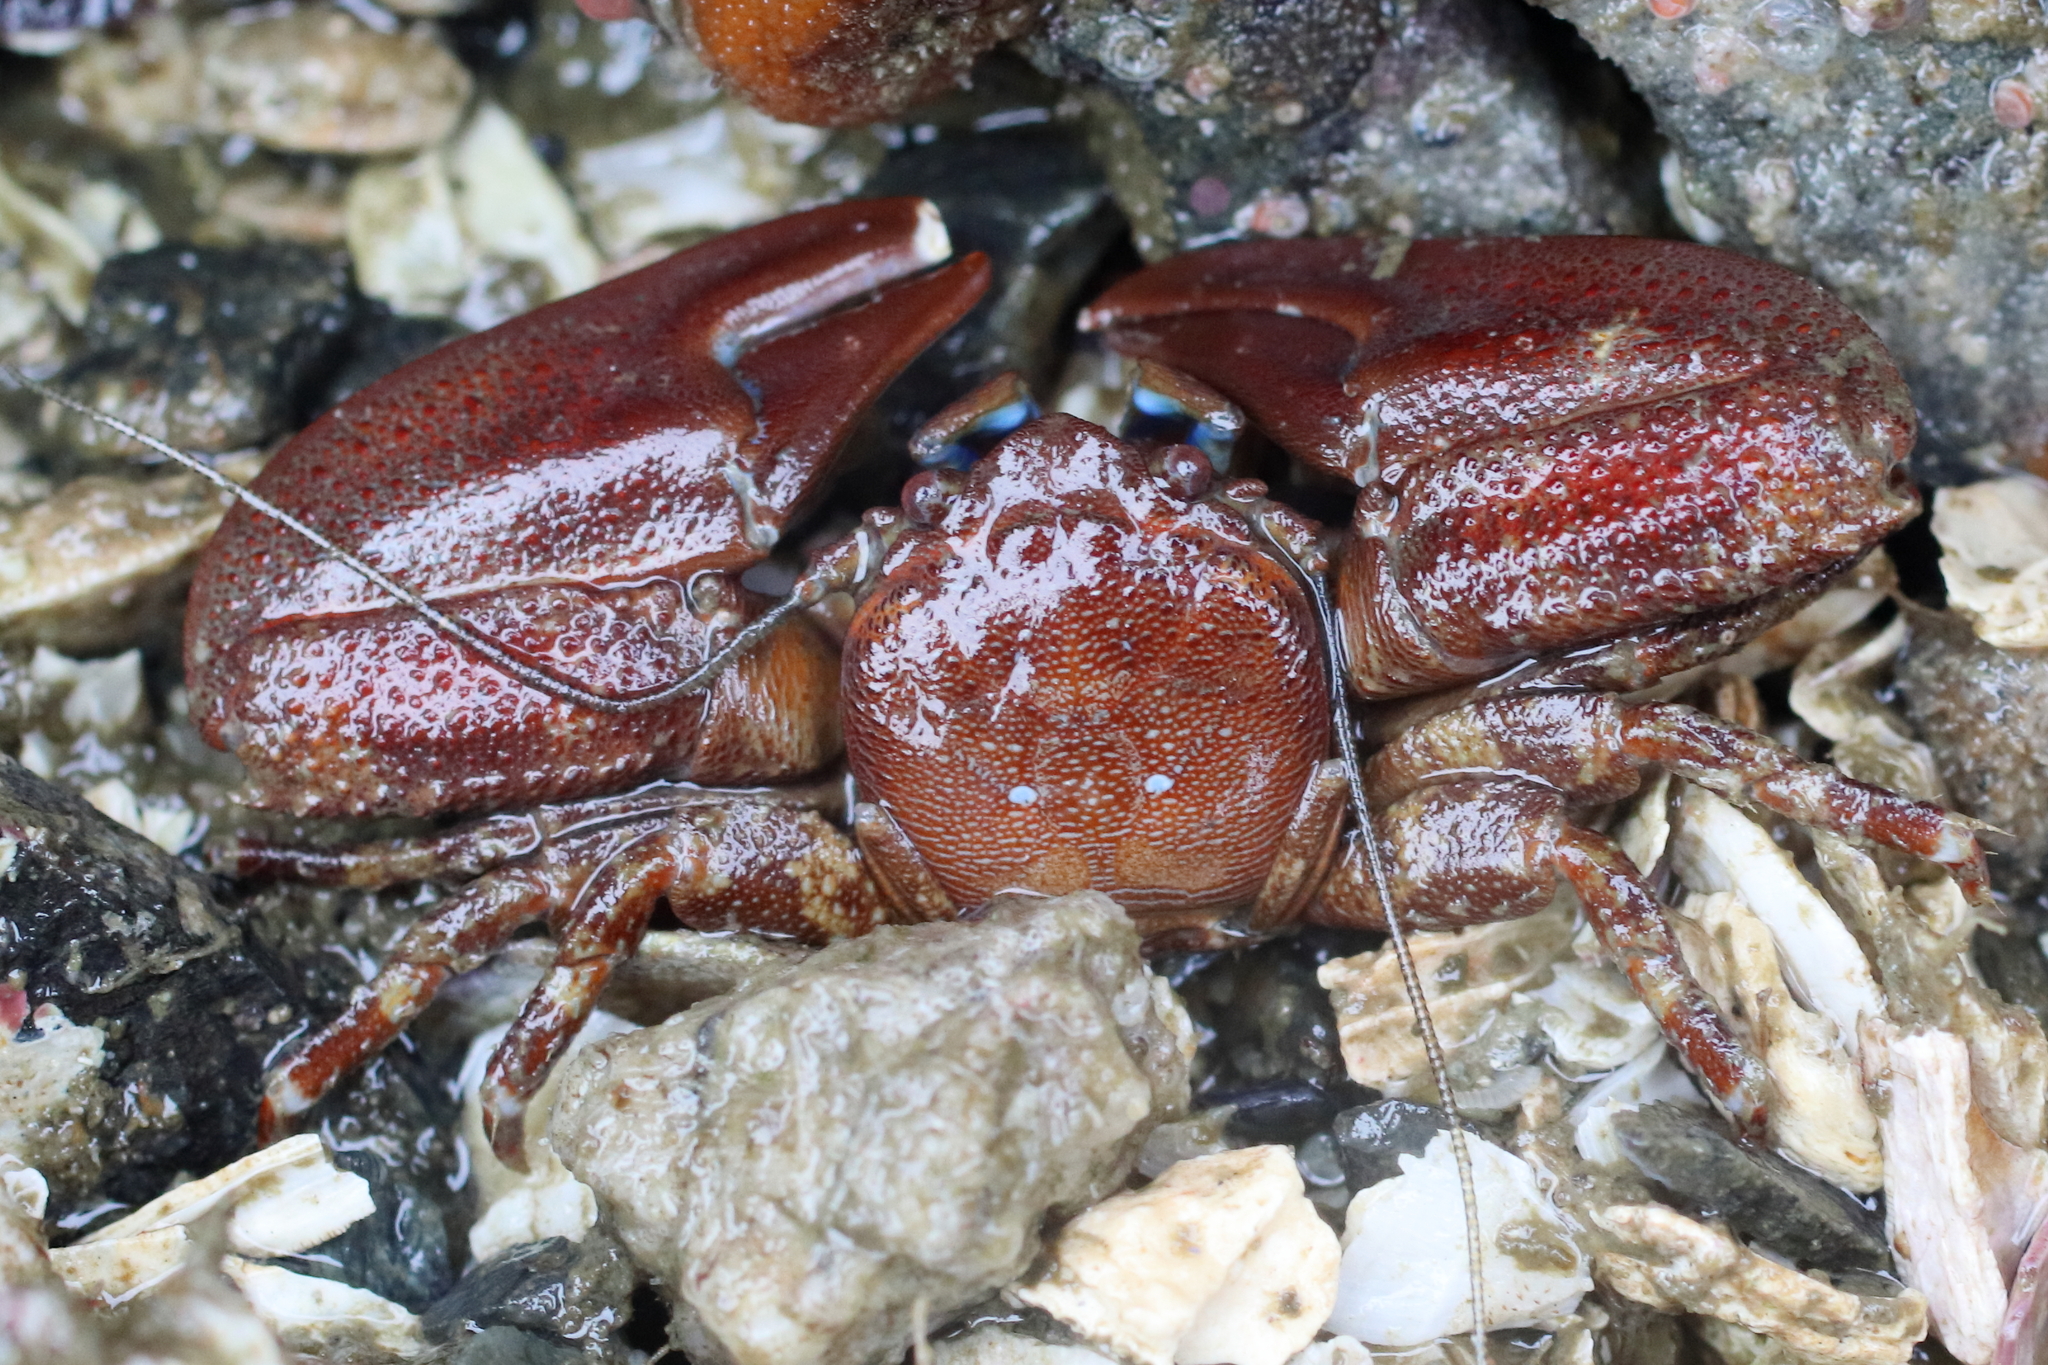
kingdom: Animalia
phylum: Arthropoda
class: Malacostraca
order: Decapoda
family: Porcellanidae
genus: Petrolisthes
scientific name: Petrolisthes eriomerus
